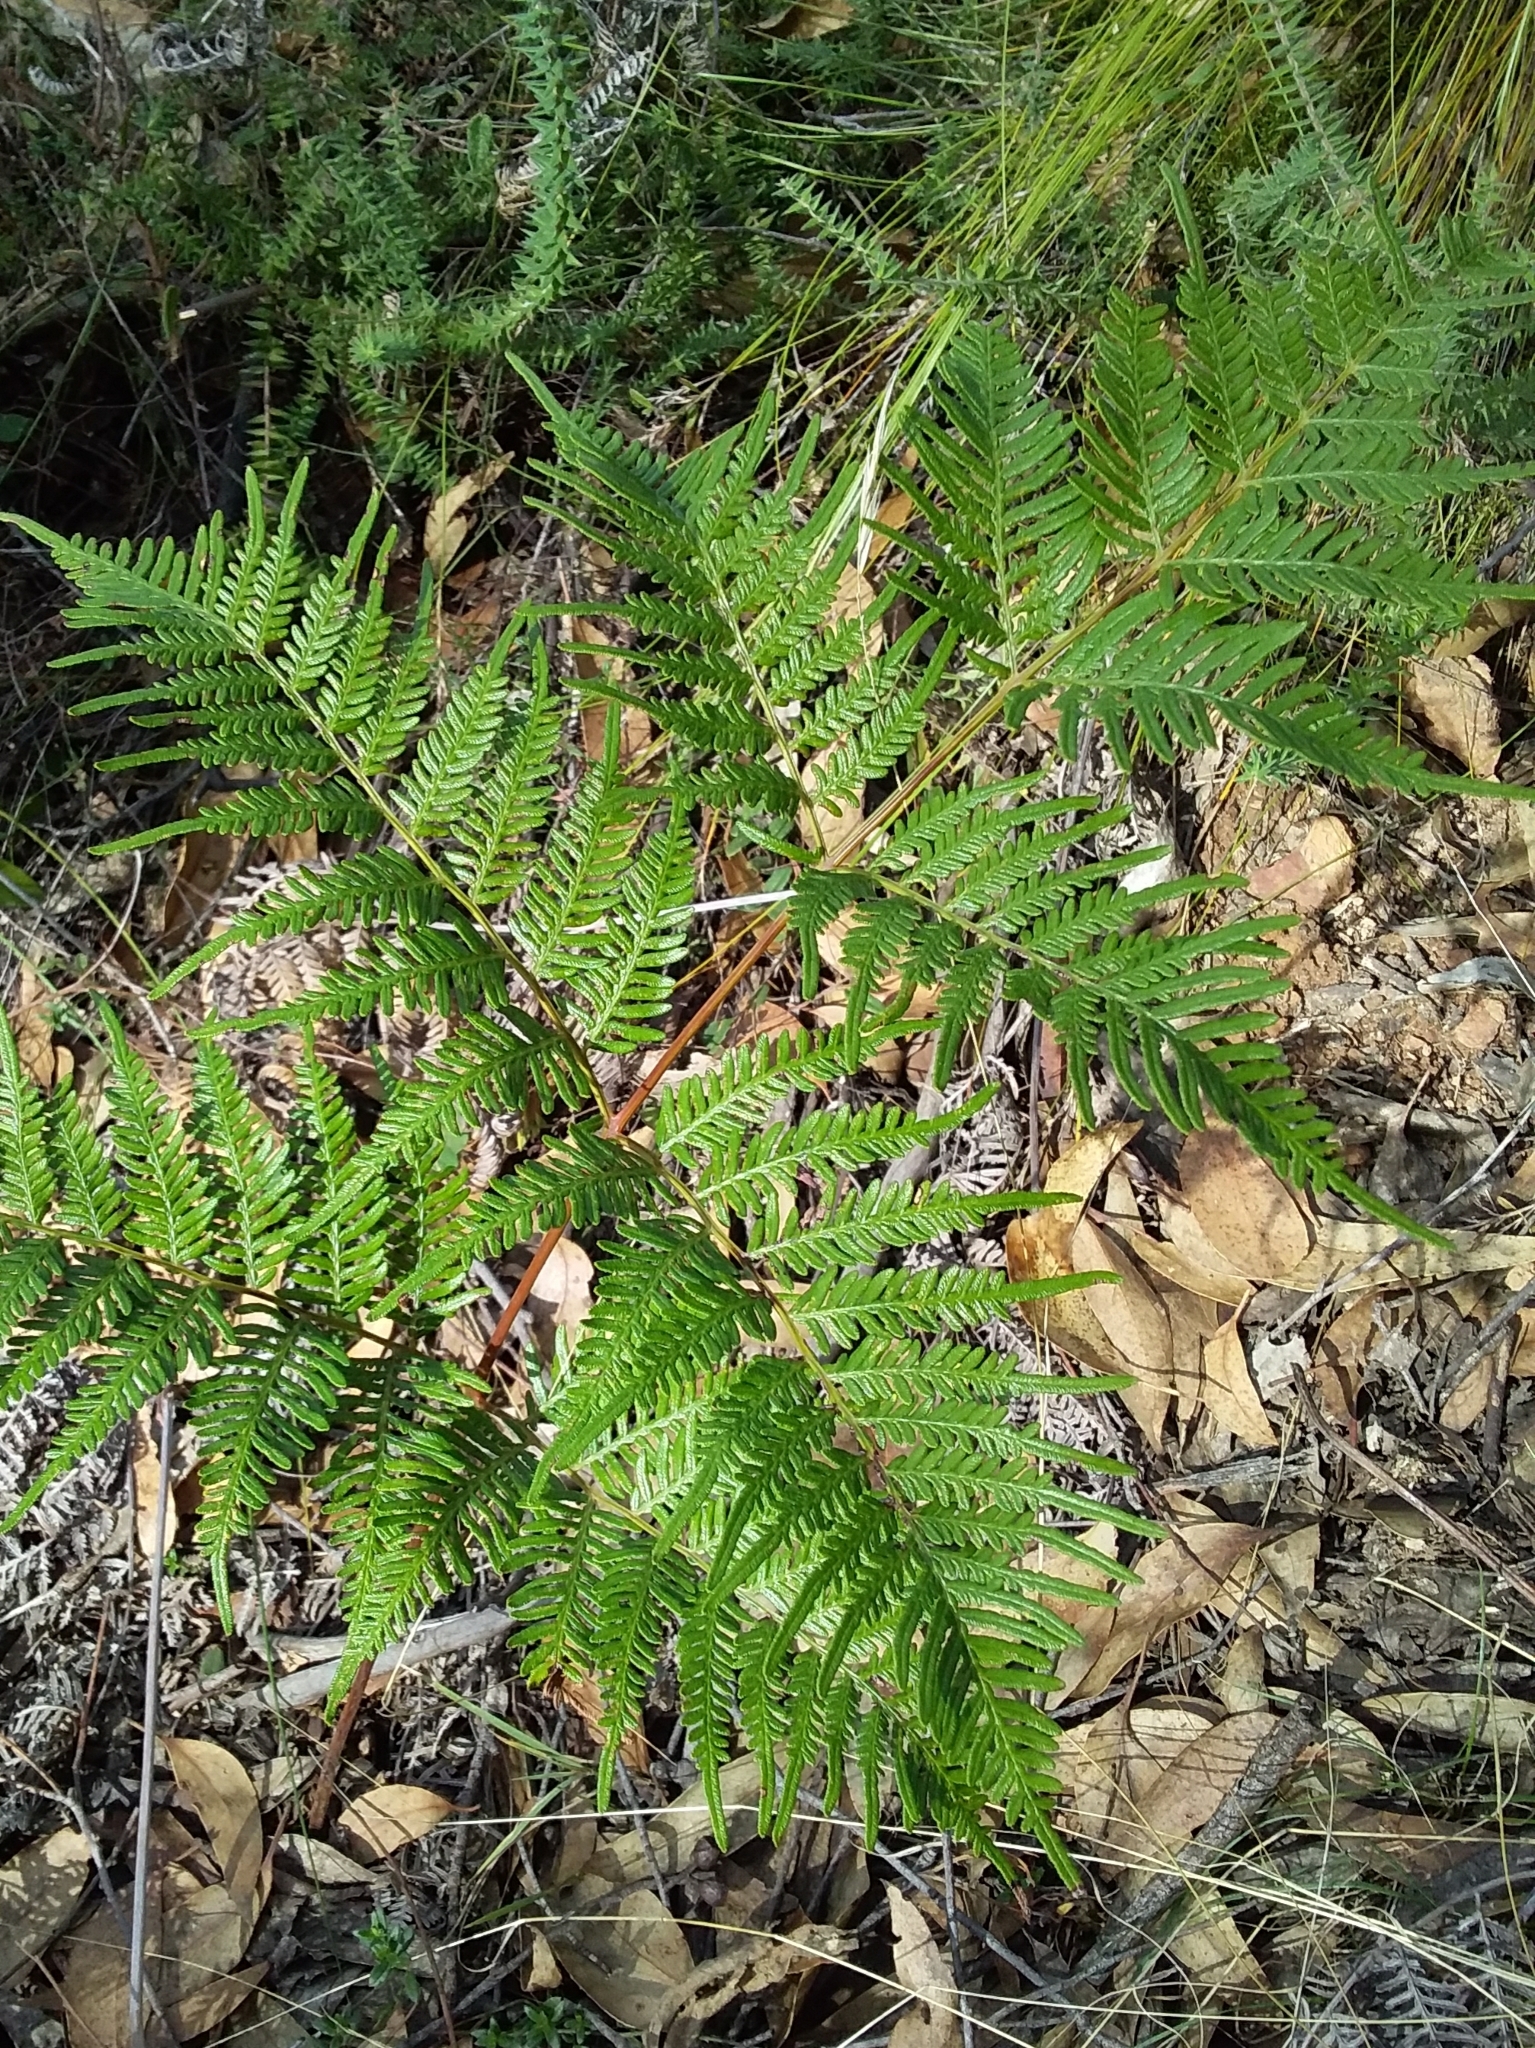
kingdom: Plantae
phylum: Tracheophyta
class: Polypodiopsida
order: Polypodiales
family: Dennstaedtiaceae
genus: Pteridium
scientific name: Pteridium esculentum
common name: Bracken fern
